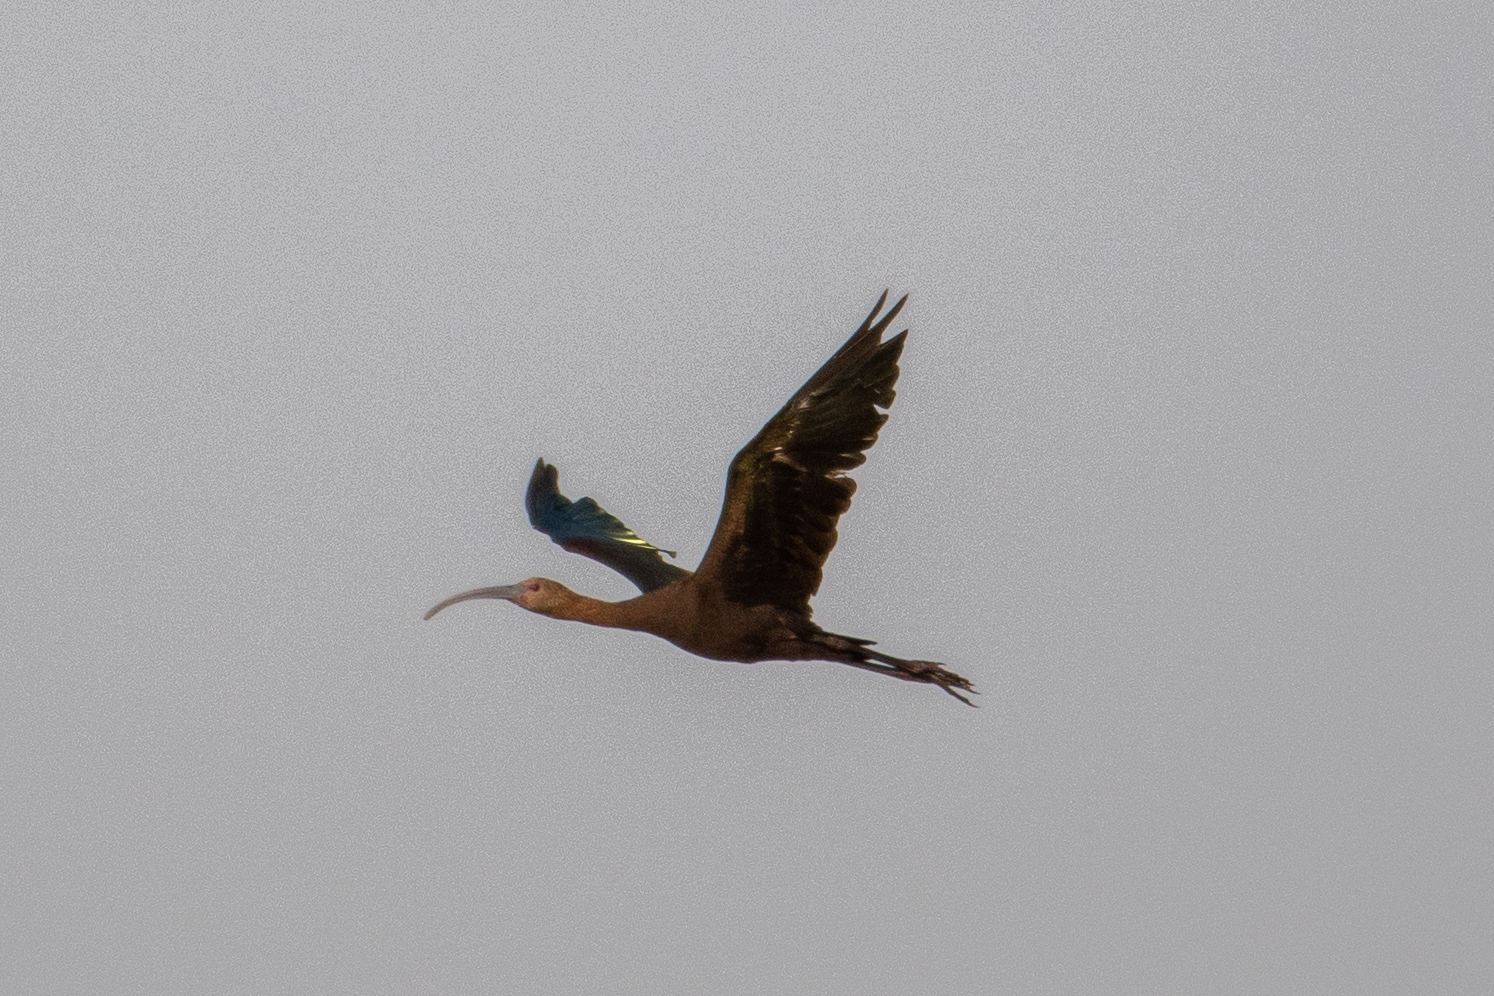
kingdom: Animalia
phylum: Chordata
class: Aves
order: Pelecaniformes
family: Threskiornithidae
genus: Plegadis
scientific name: Plegadis chihi
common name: White-faced ibis
